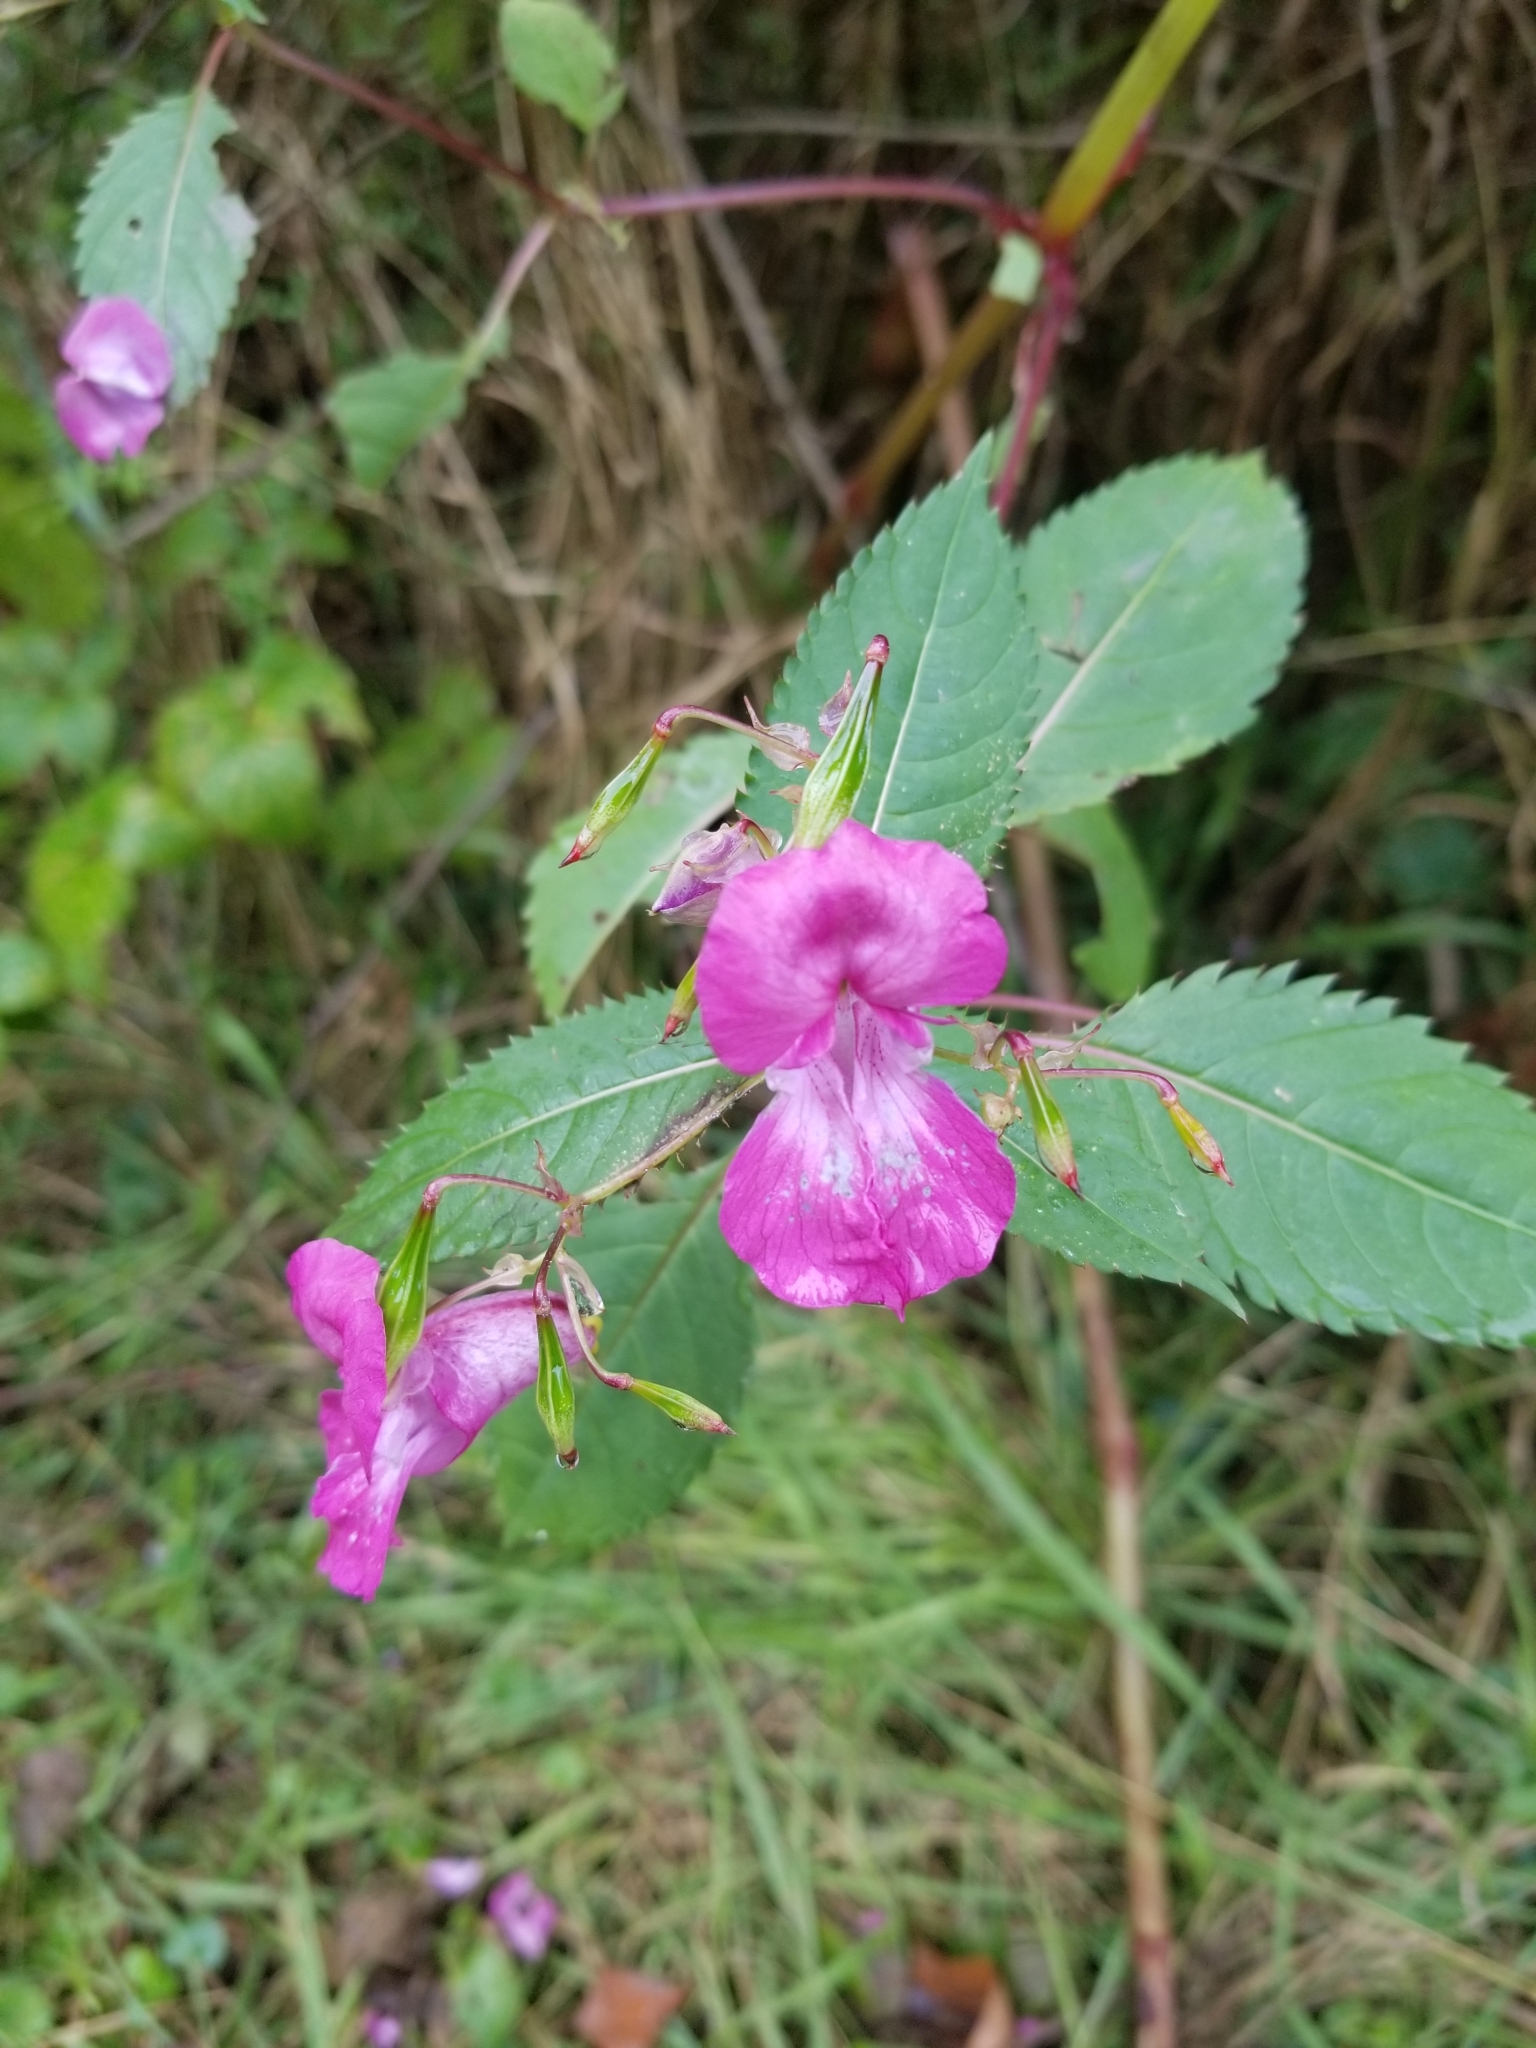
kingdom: Plantae
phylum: Tracheophyta
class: Magnoliopsida
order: Ericales
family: Balsaminaceae
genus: Impatiens
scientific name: Impatiens glandulifera
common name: Himalayan balsam
